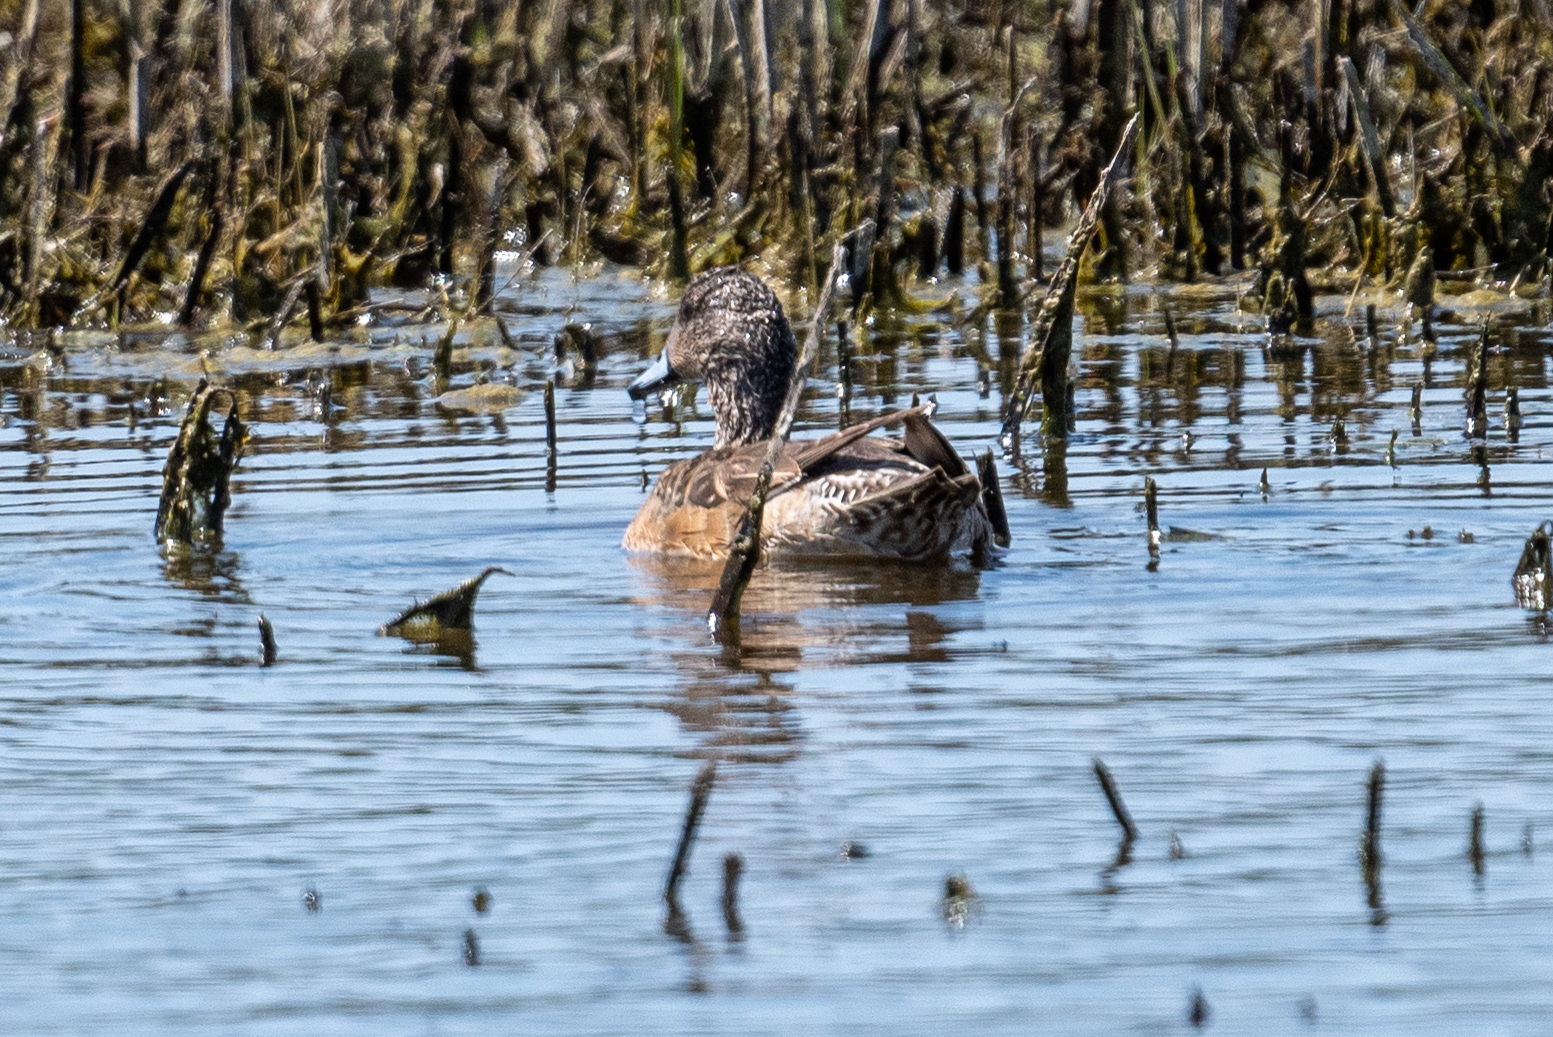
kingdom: Animalia
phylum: Chordata
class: Aves
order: Anseriformes
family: Anatidae
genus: Mareca
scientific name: Mareca americana
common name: American wigeon
